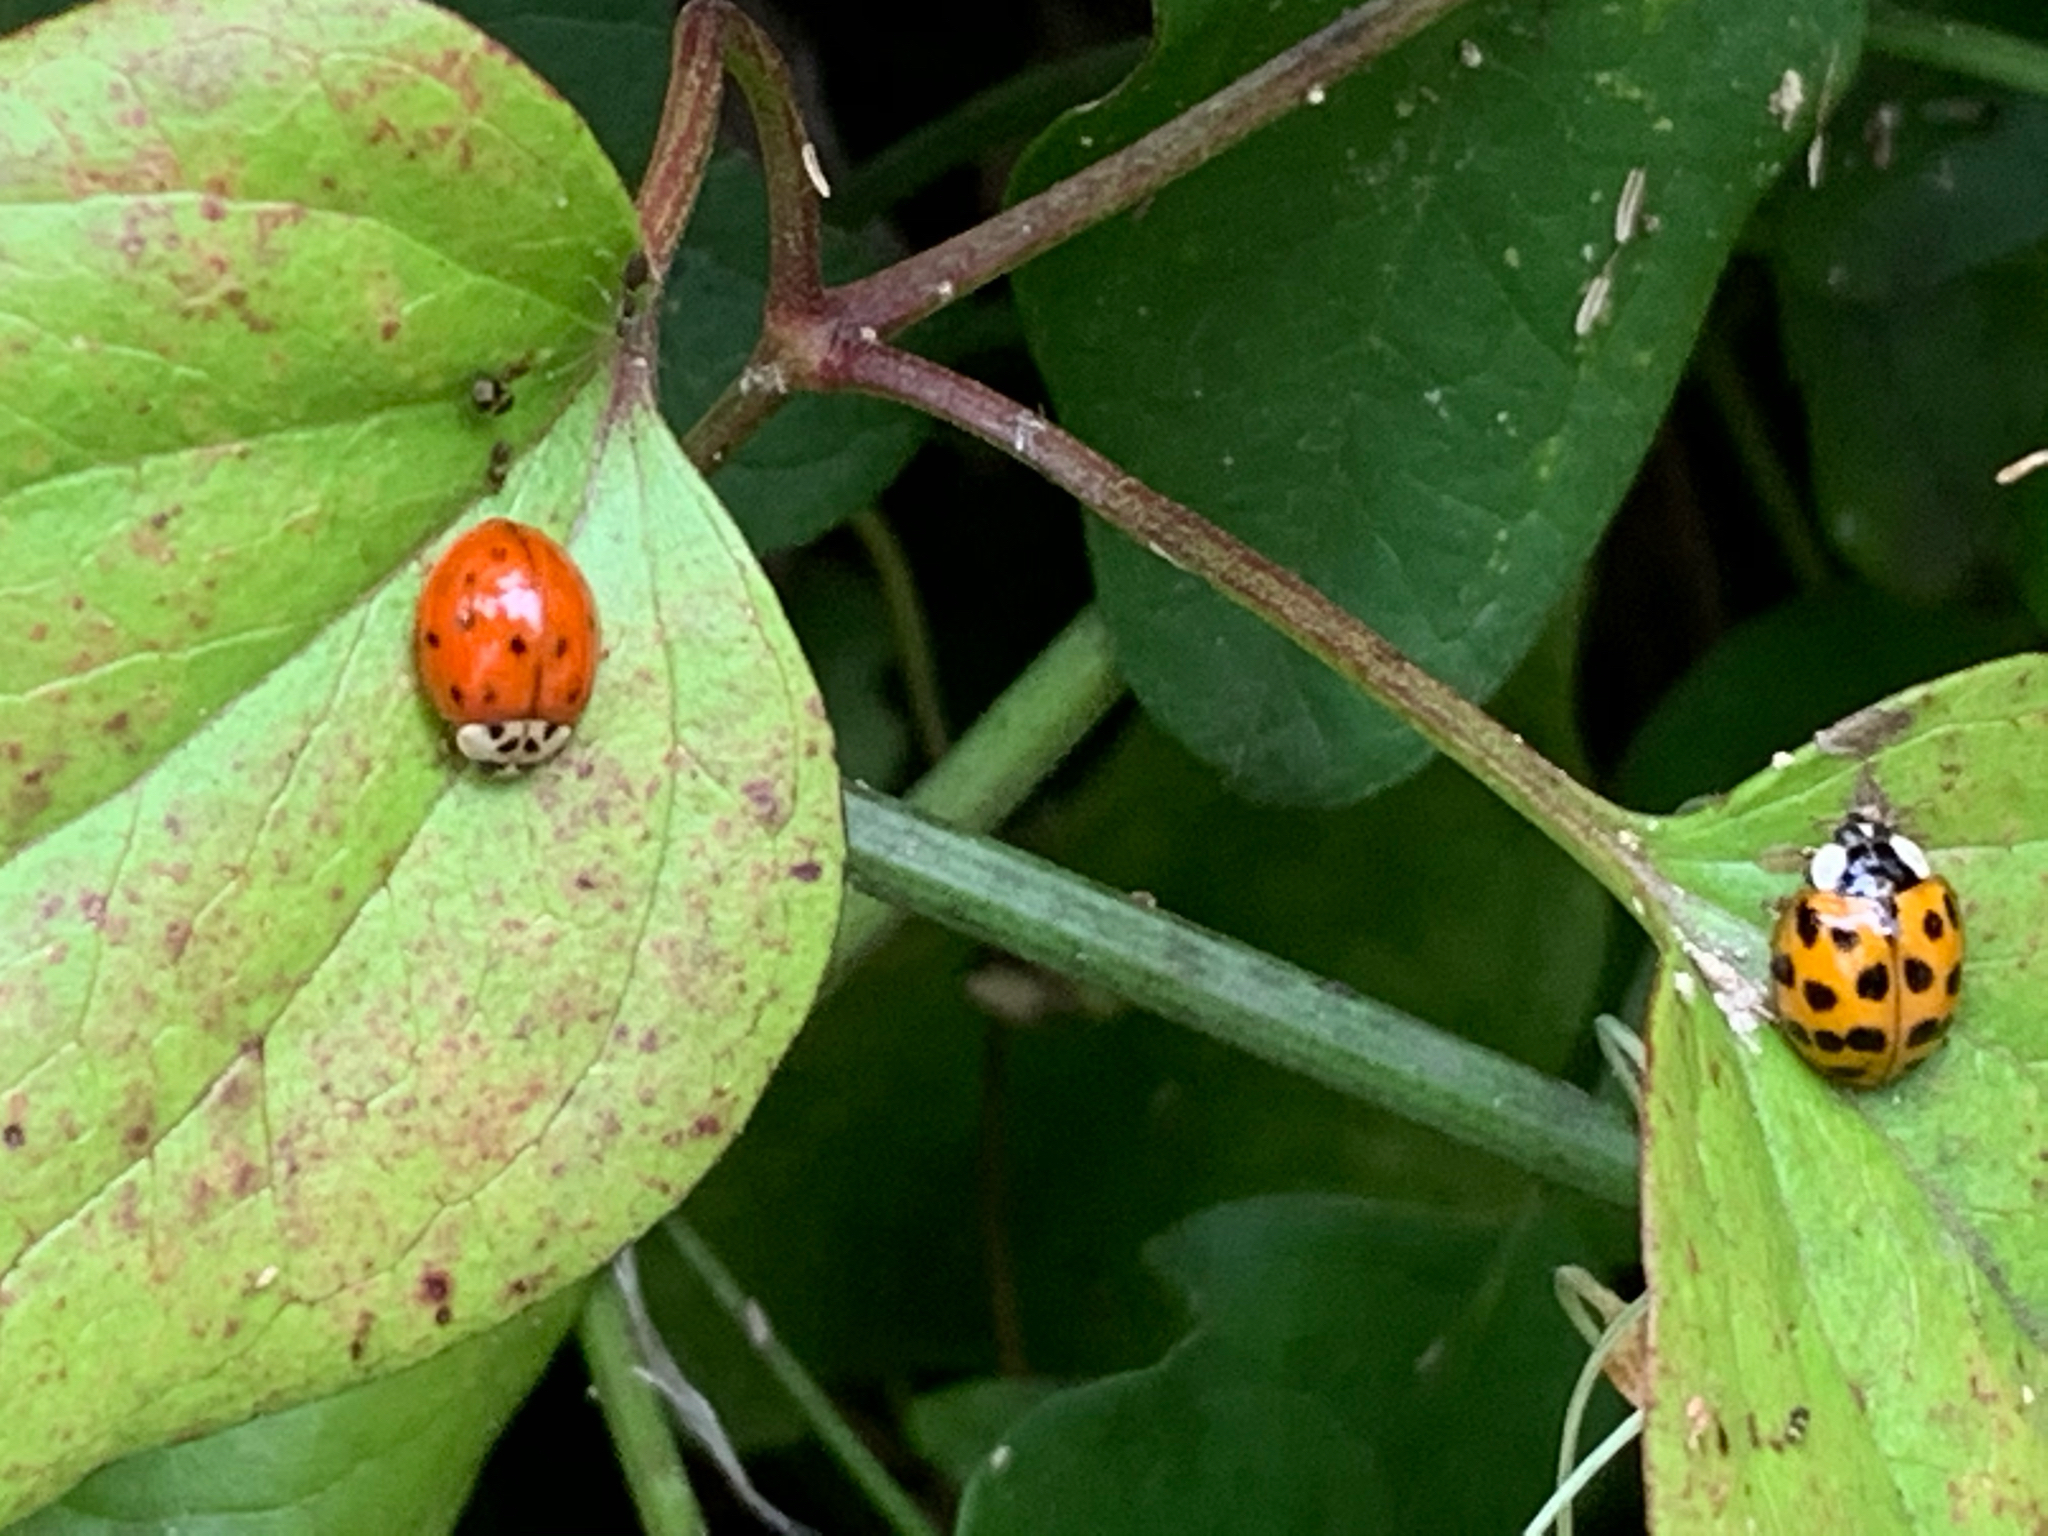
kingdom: Animalia
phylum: Arthropoda
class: Insecta
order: Coleoptera
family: Coccinellidae
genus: Harmonia
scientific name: Harmonia axyridis
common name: Harlequin ladybird
